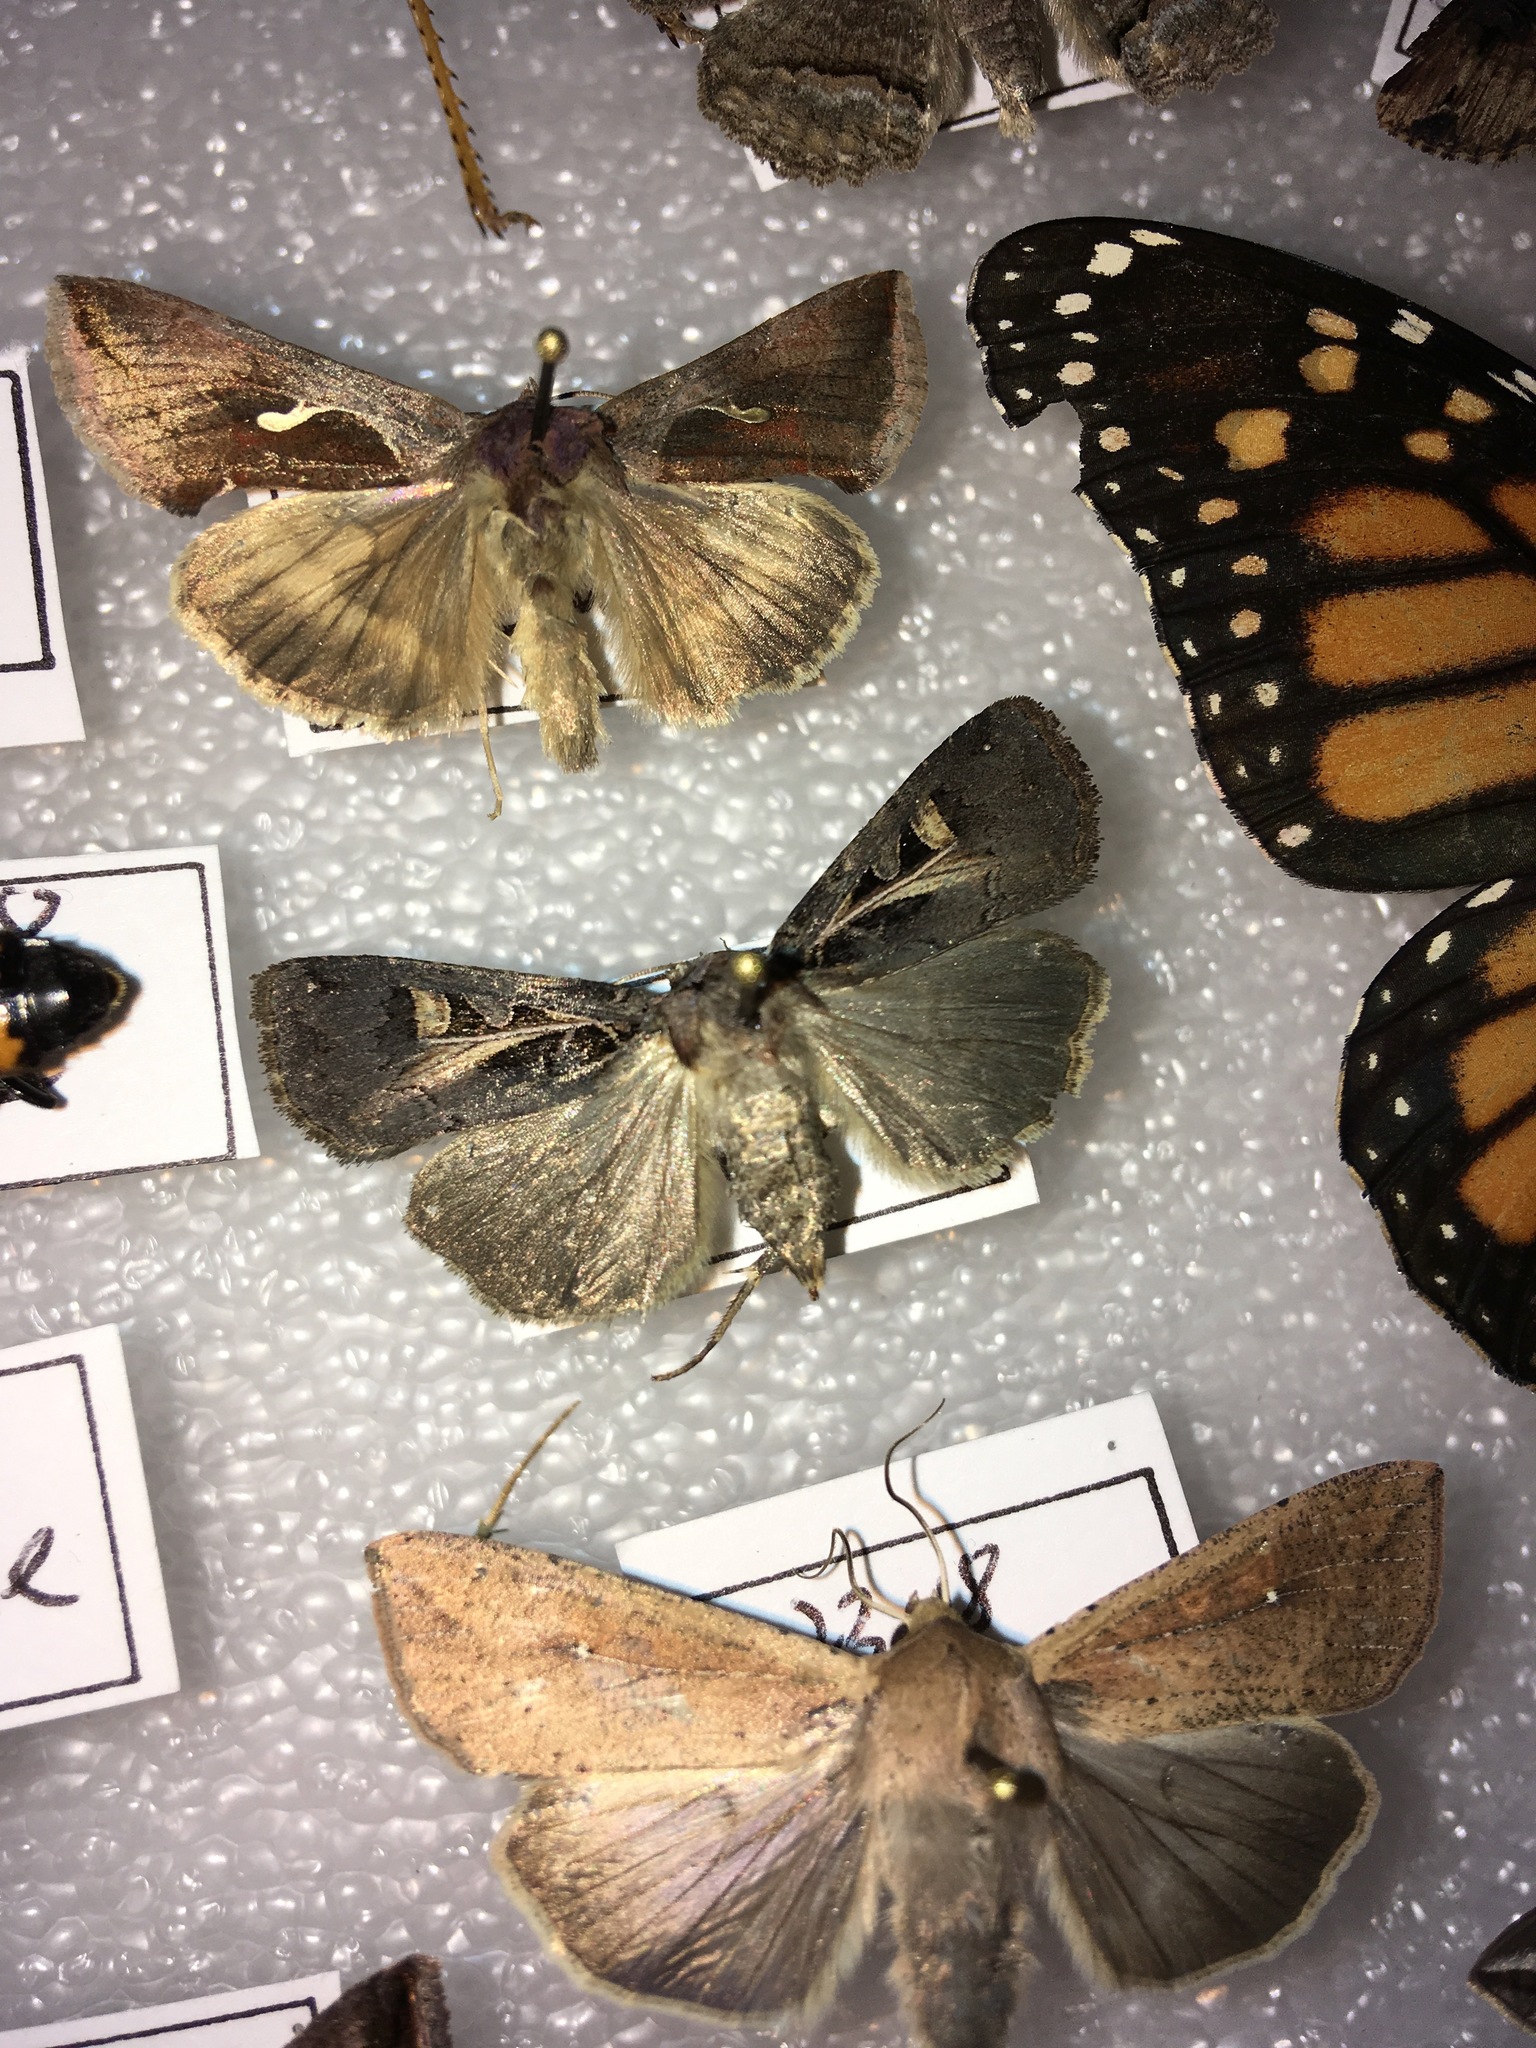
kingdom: Animalia
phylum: Arthropoda
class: Insecta
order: Lepidoptera
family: Noctuidae
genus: Feltia
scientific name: Feltia herilis
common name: Master's dart
